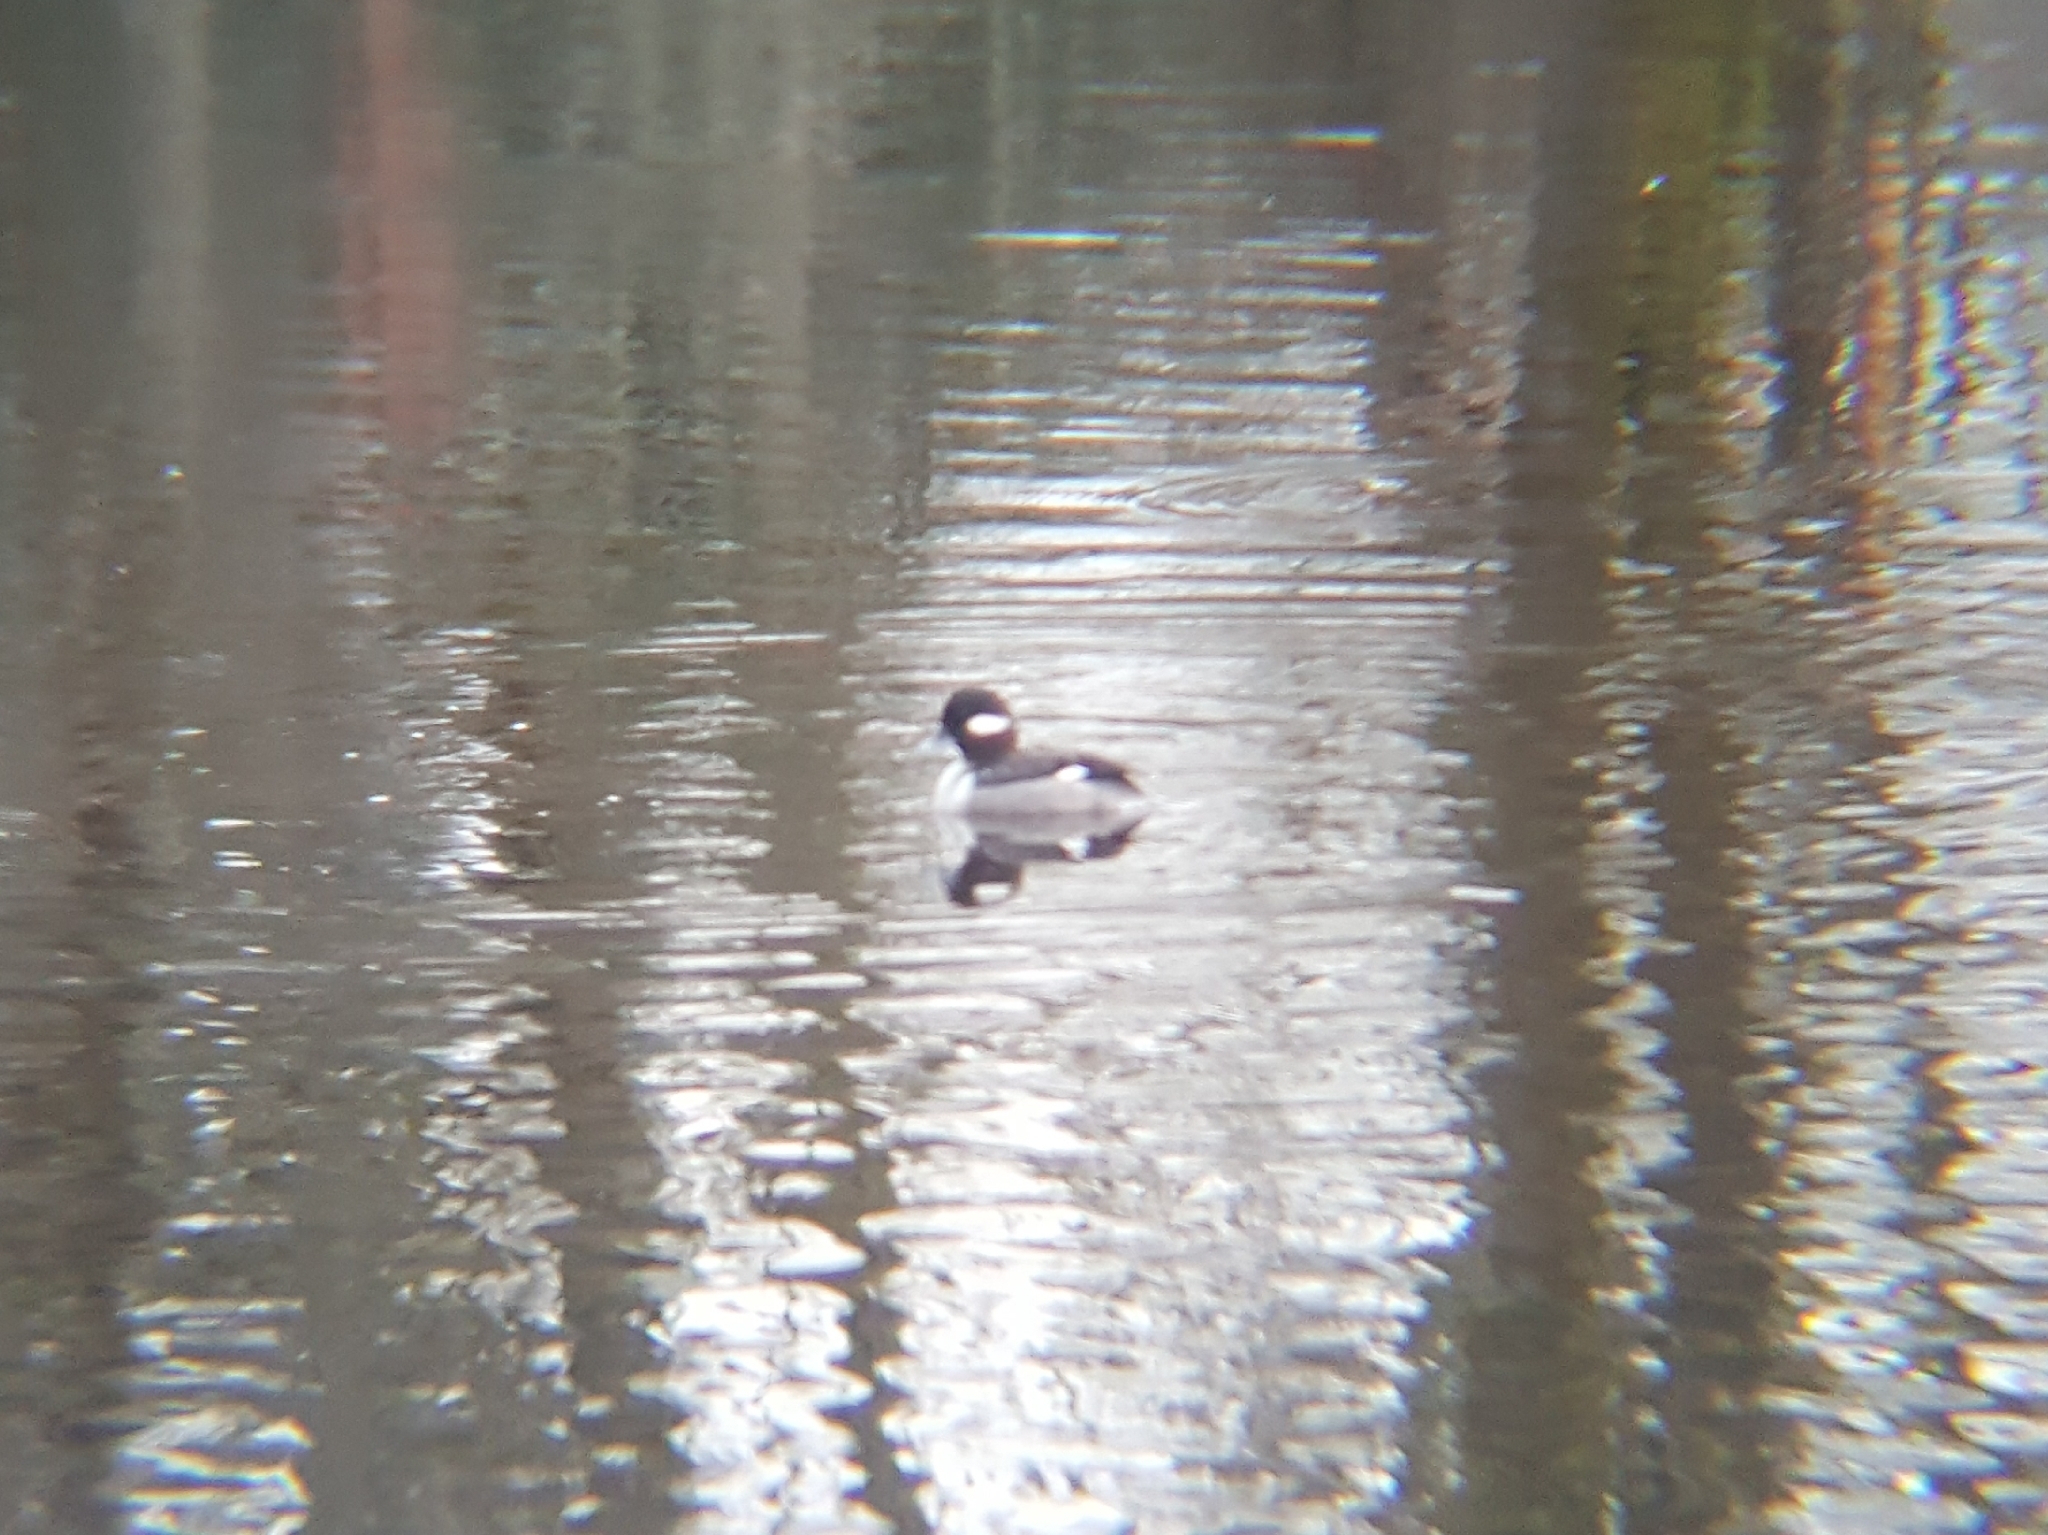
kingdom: Animalia
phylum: Chordata
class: Aves
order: Anseriformes
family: Anatidae
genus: Bucephala
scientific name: Bucephala albeola
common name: Bufflehead
